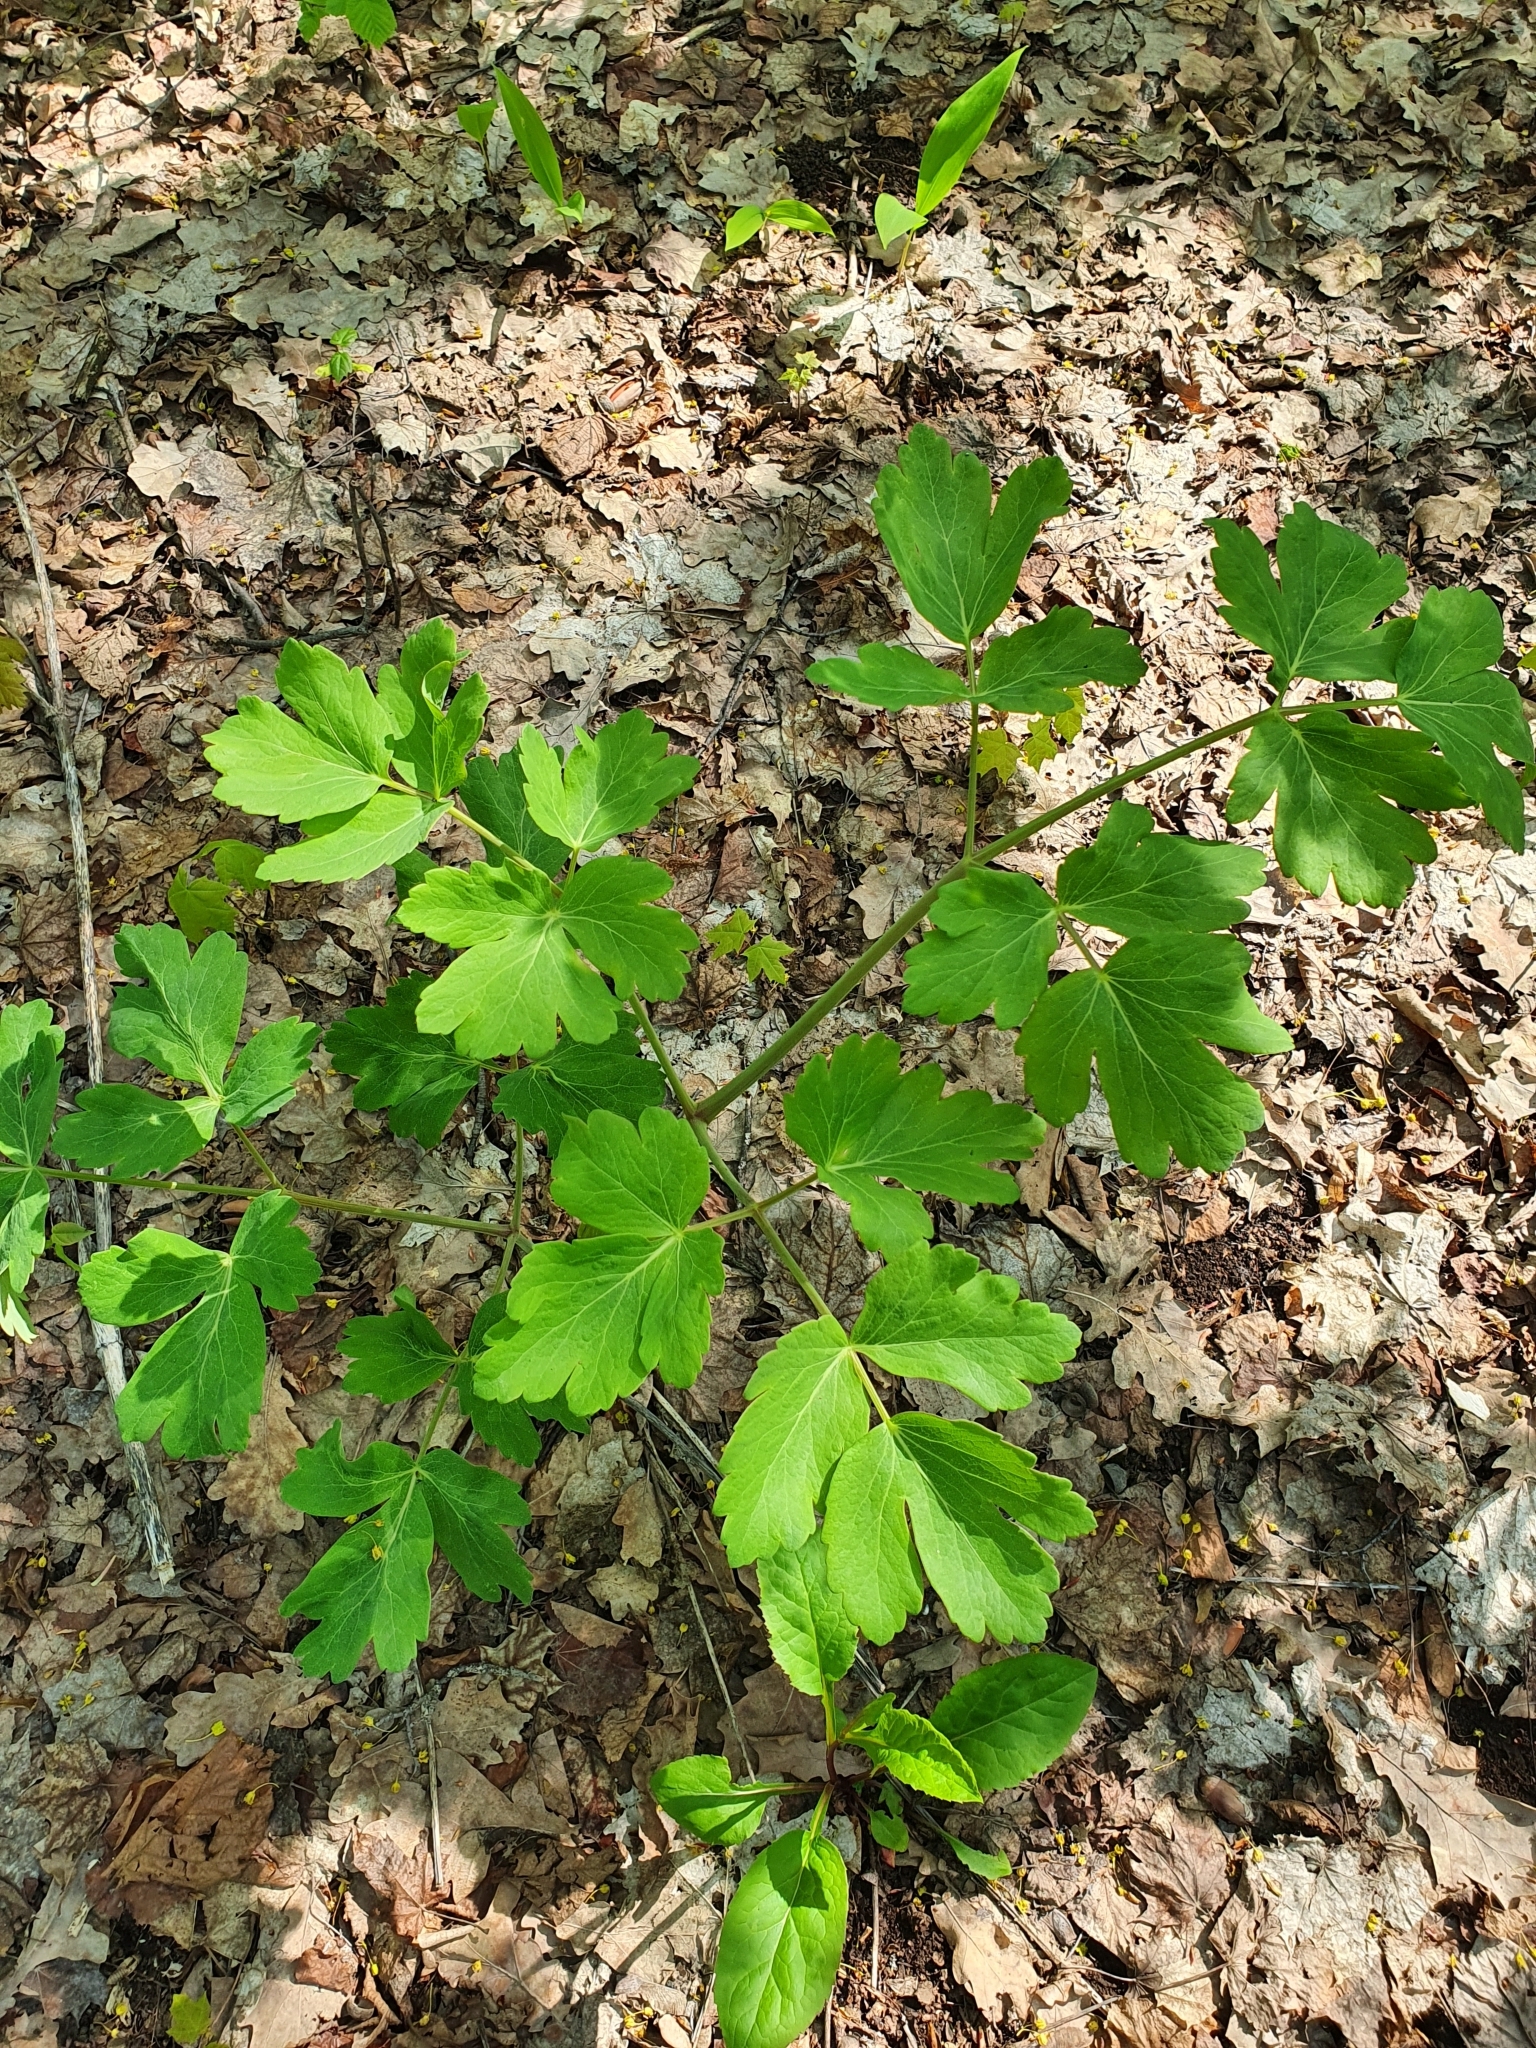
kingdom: Plantae
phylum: Tracheophyta
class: Magnoliopsida
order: Apiales
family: Apiaceae
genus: Laser
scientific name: Laser trilobum
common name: Laser
